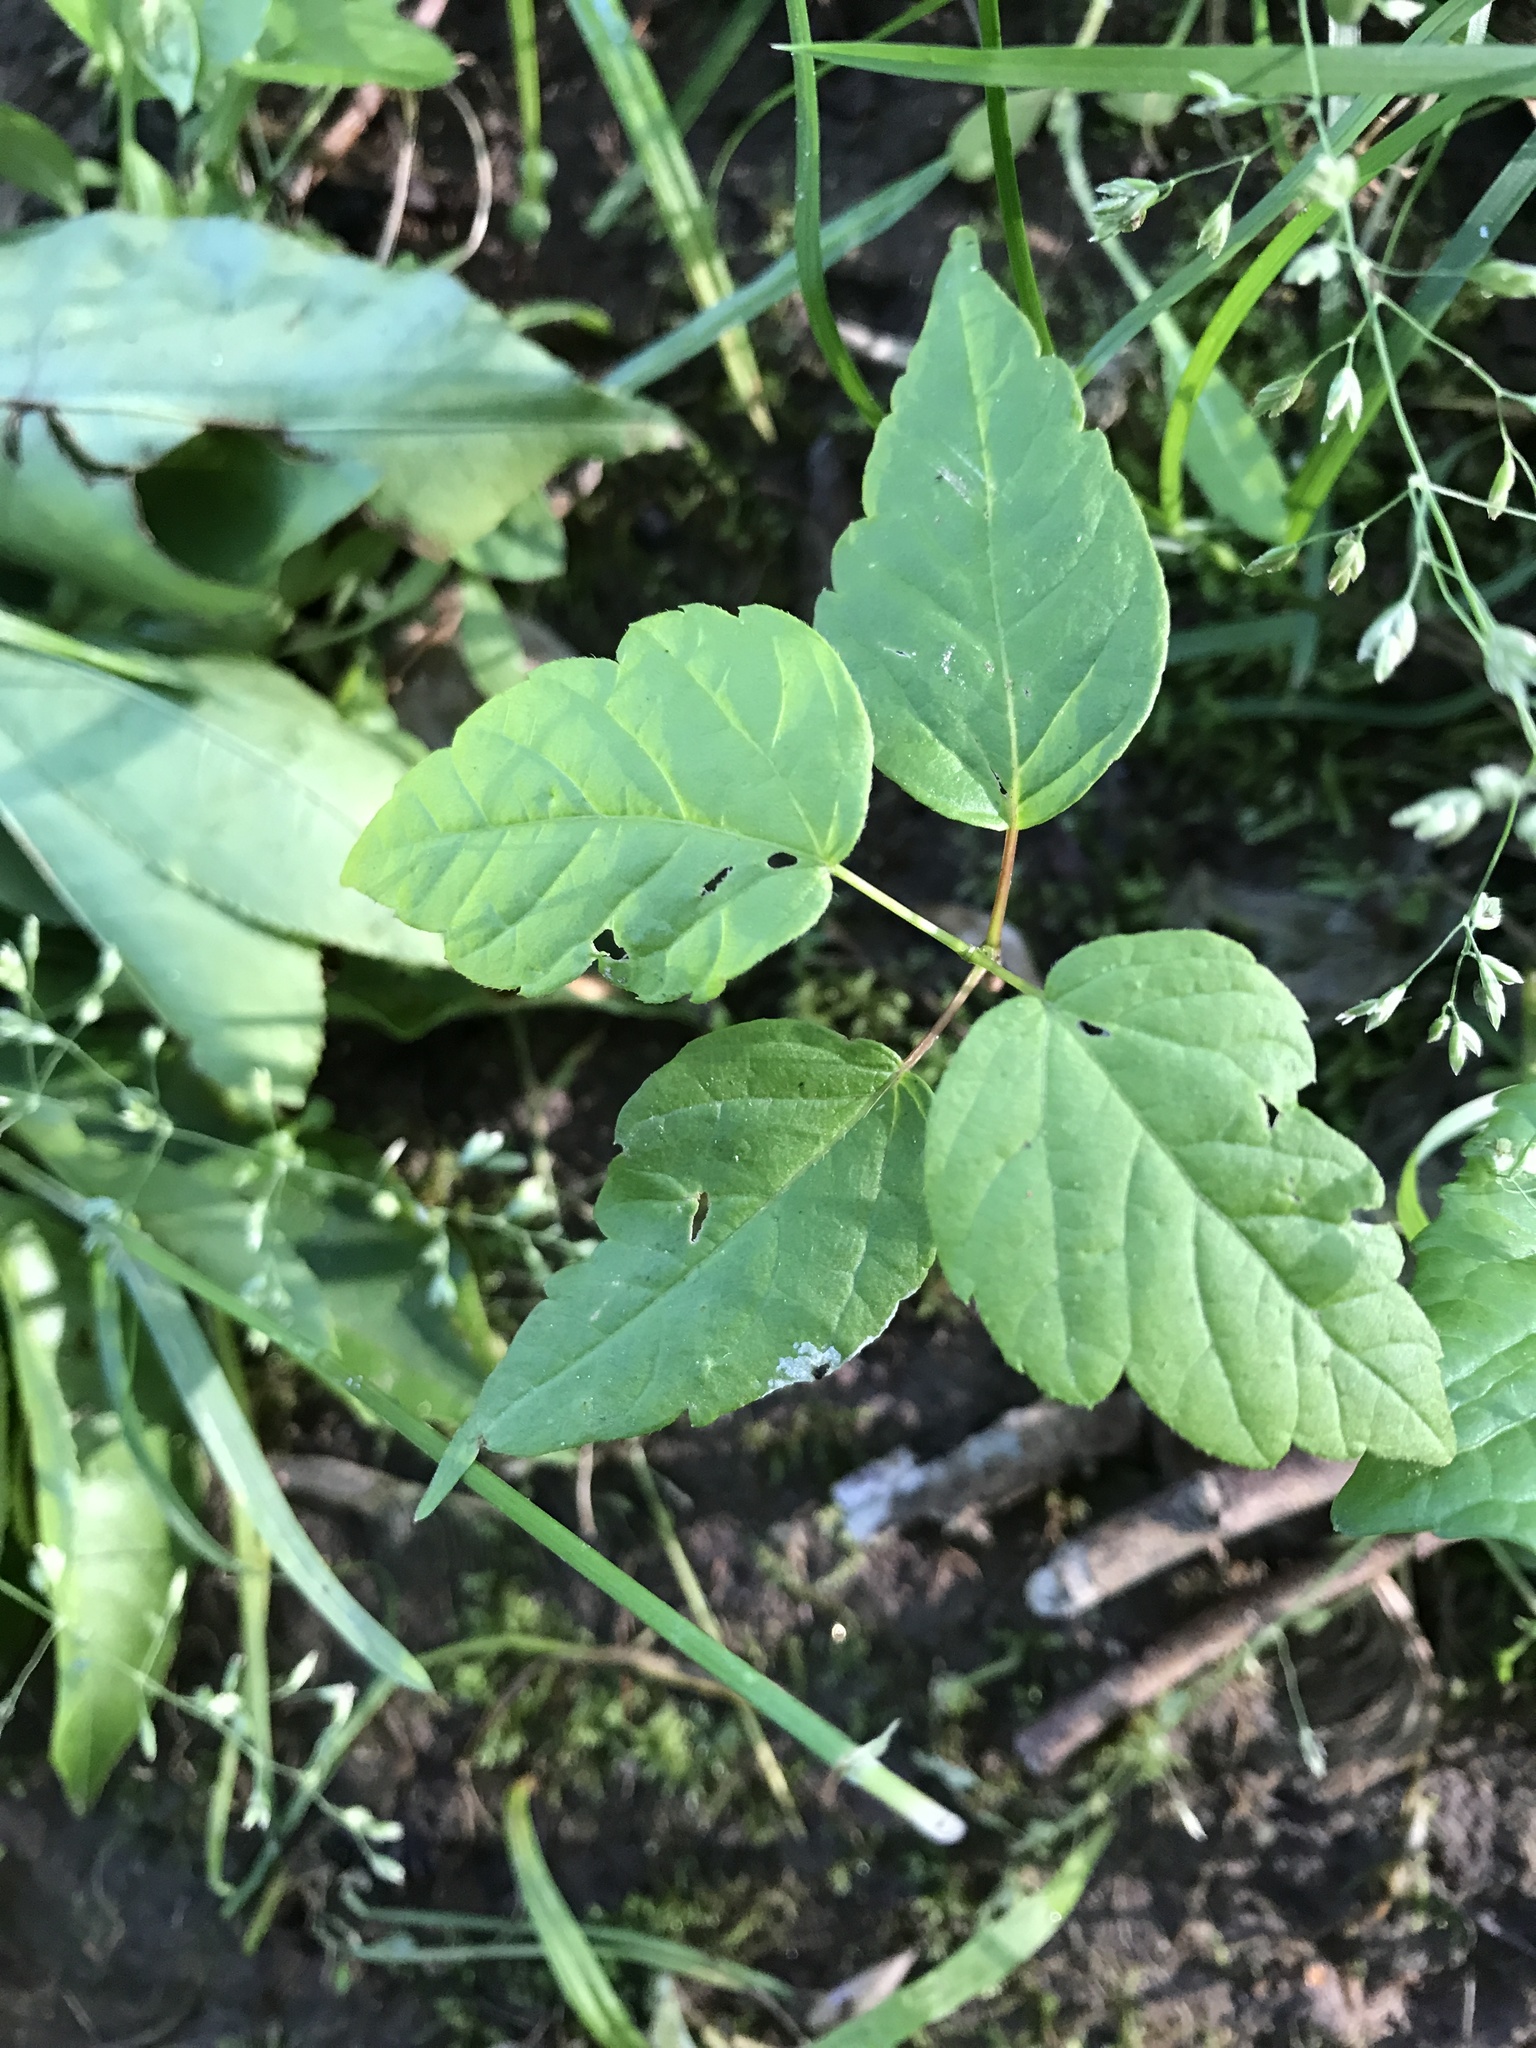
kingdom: Plantae
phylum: Tracheophyta
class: Magnoliopsida
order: Sapindales
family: Sapindaceae
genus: Acer
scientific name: Acer negundo
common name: Ashleaf maple
